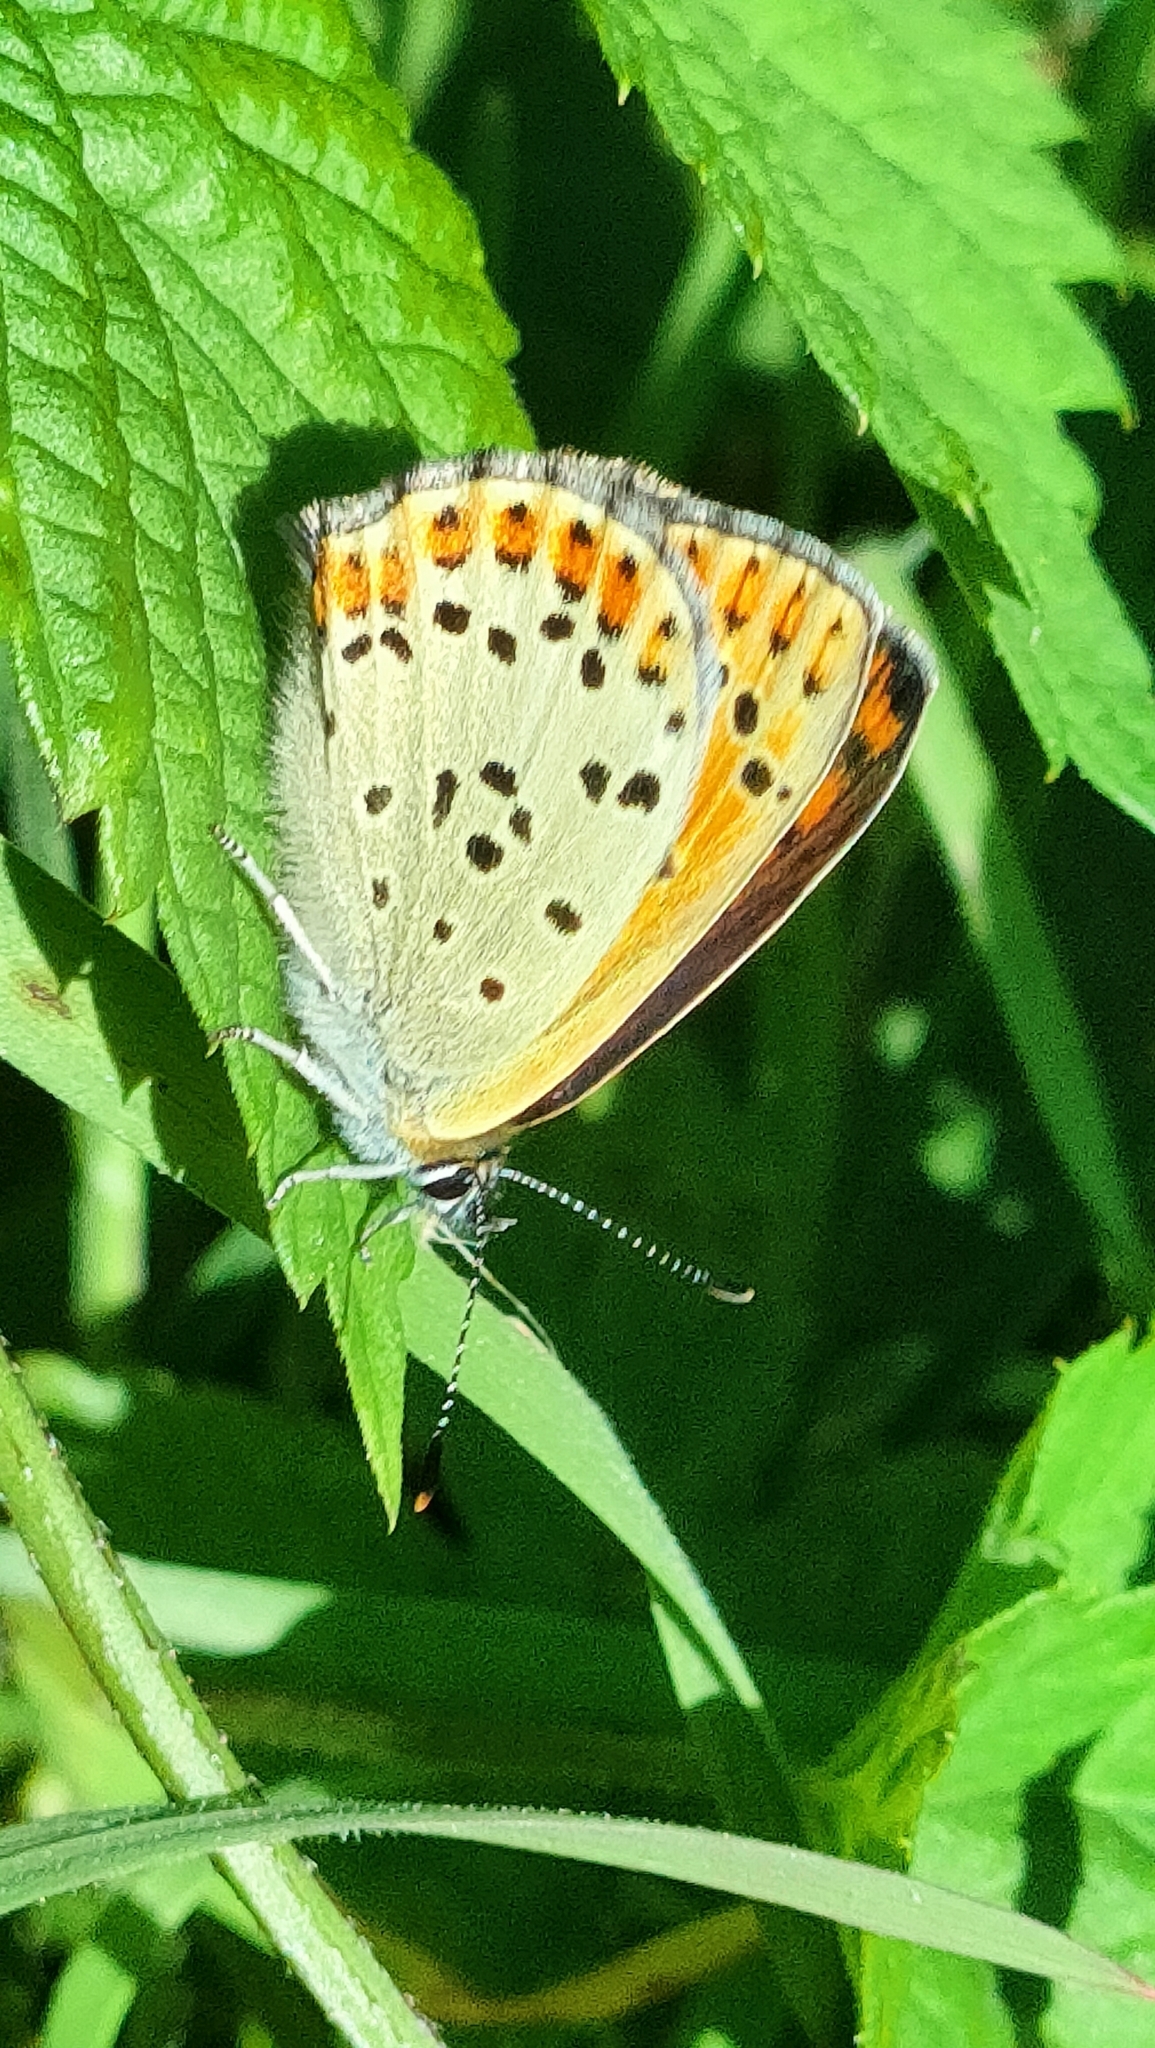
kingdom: Animalia
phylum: Arthropoda
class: Insecta
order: Lepidoptera
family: Lycaenidae
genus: Loweia
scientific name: Loweia tityrus
